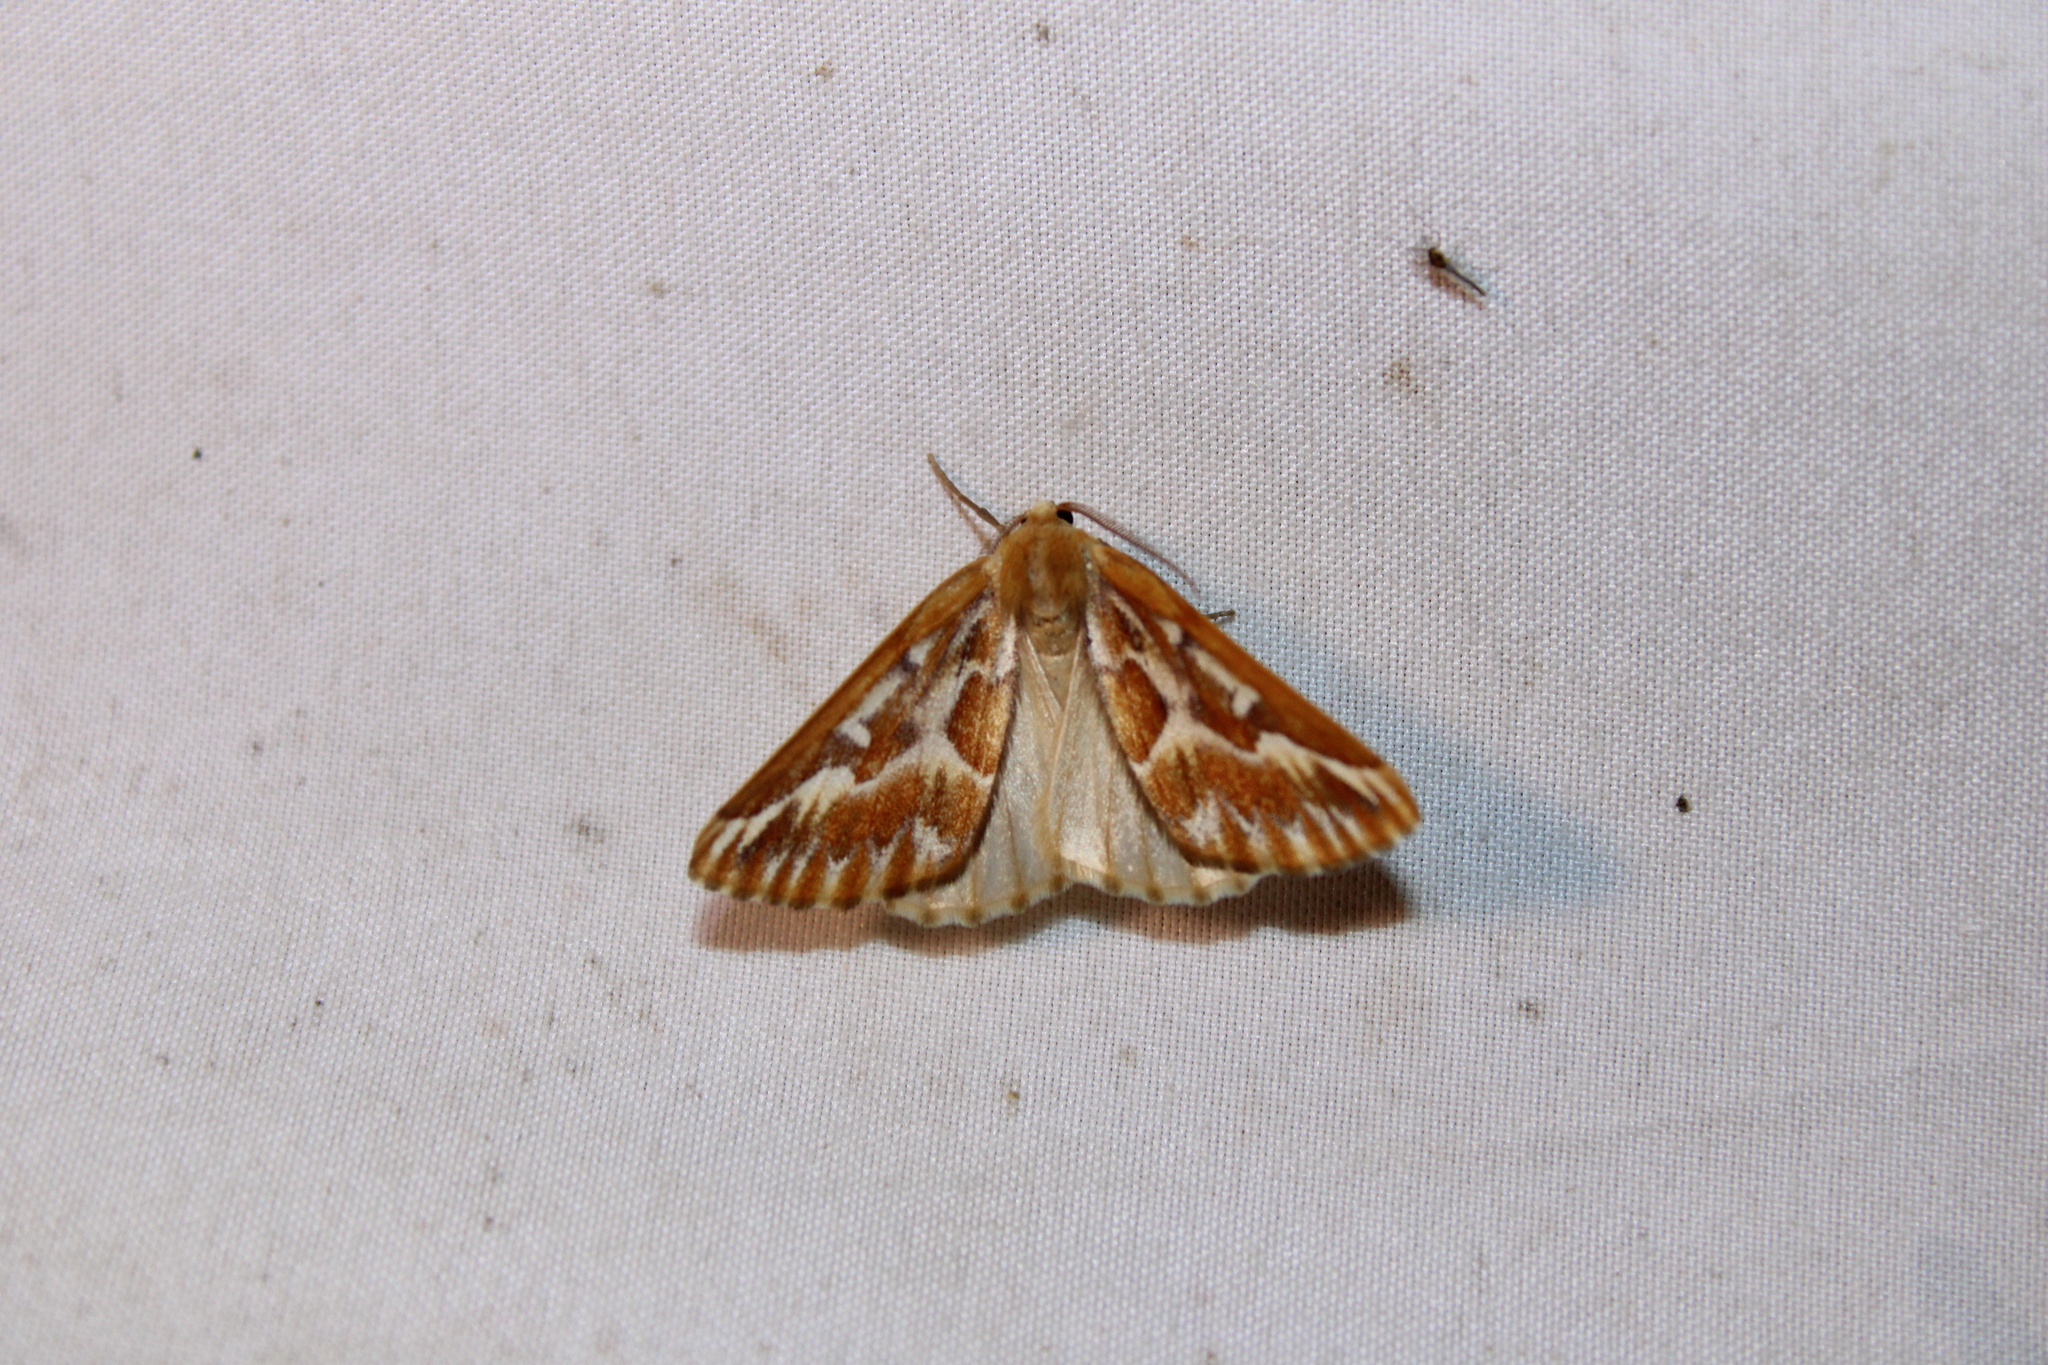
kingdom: Animalia
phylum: Arthropoda
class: Insecta
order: Lepidoptera
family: Geometridae
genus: Caripeta
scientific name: Caripeta piniata
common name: Northern pine looper moth
